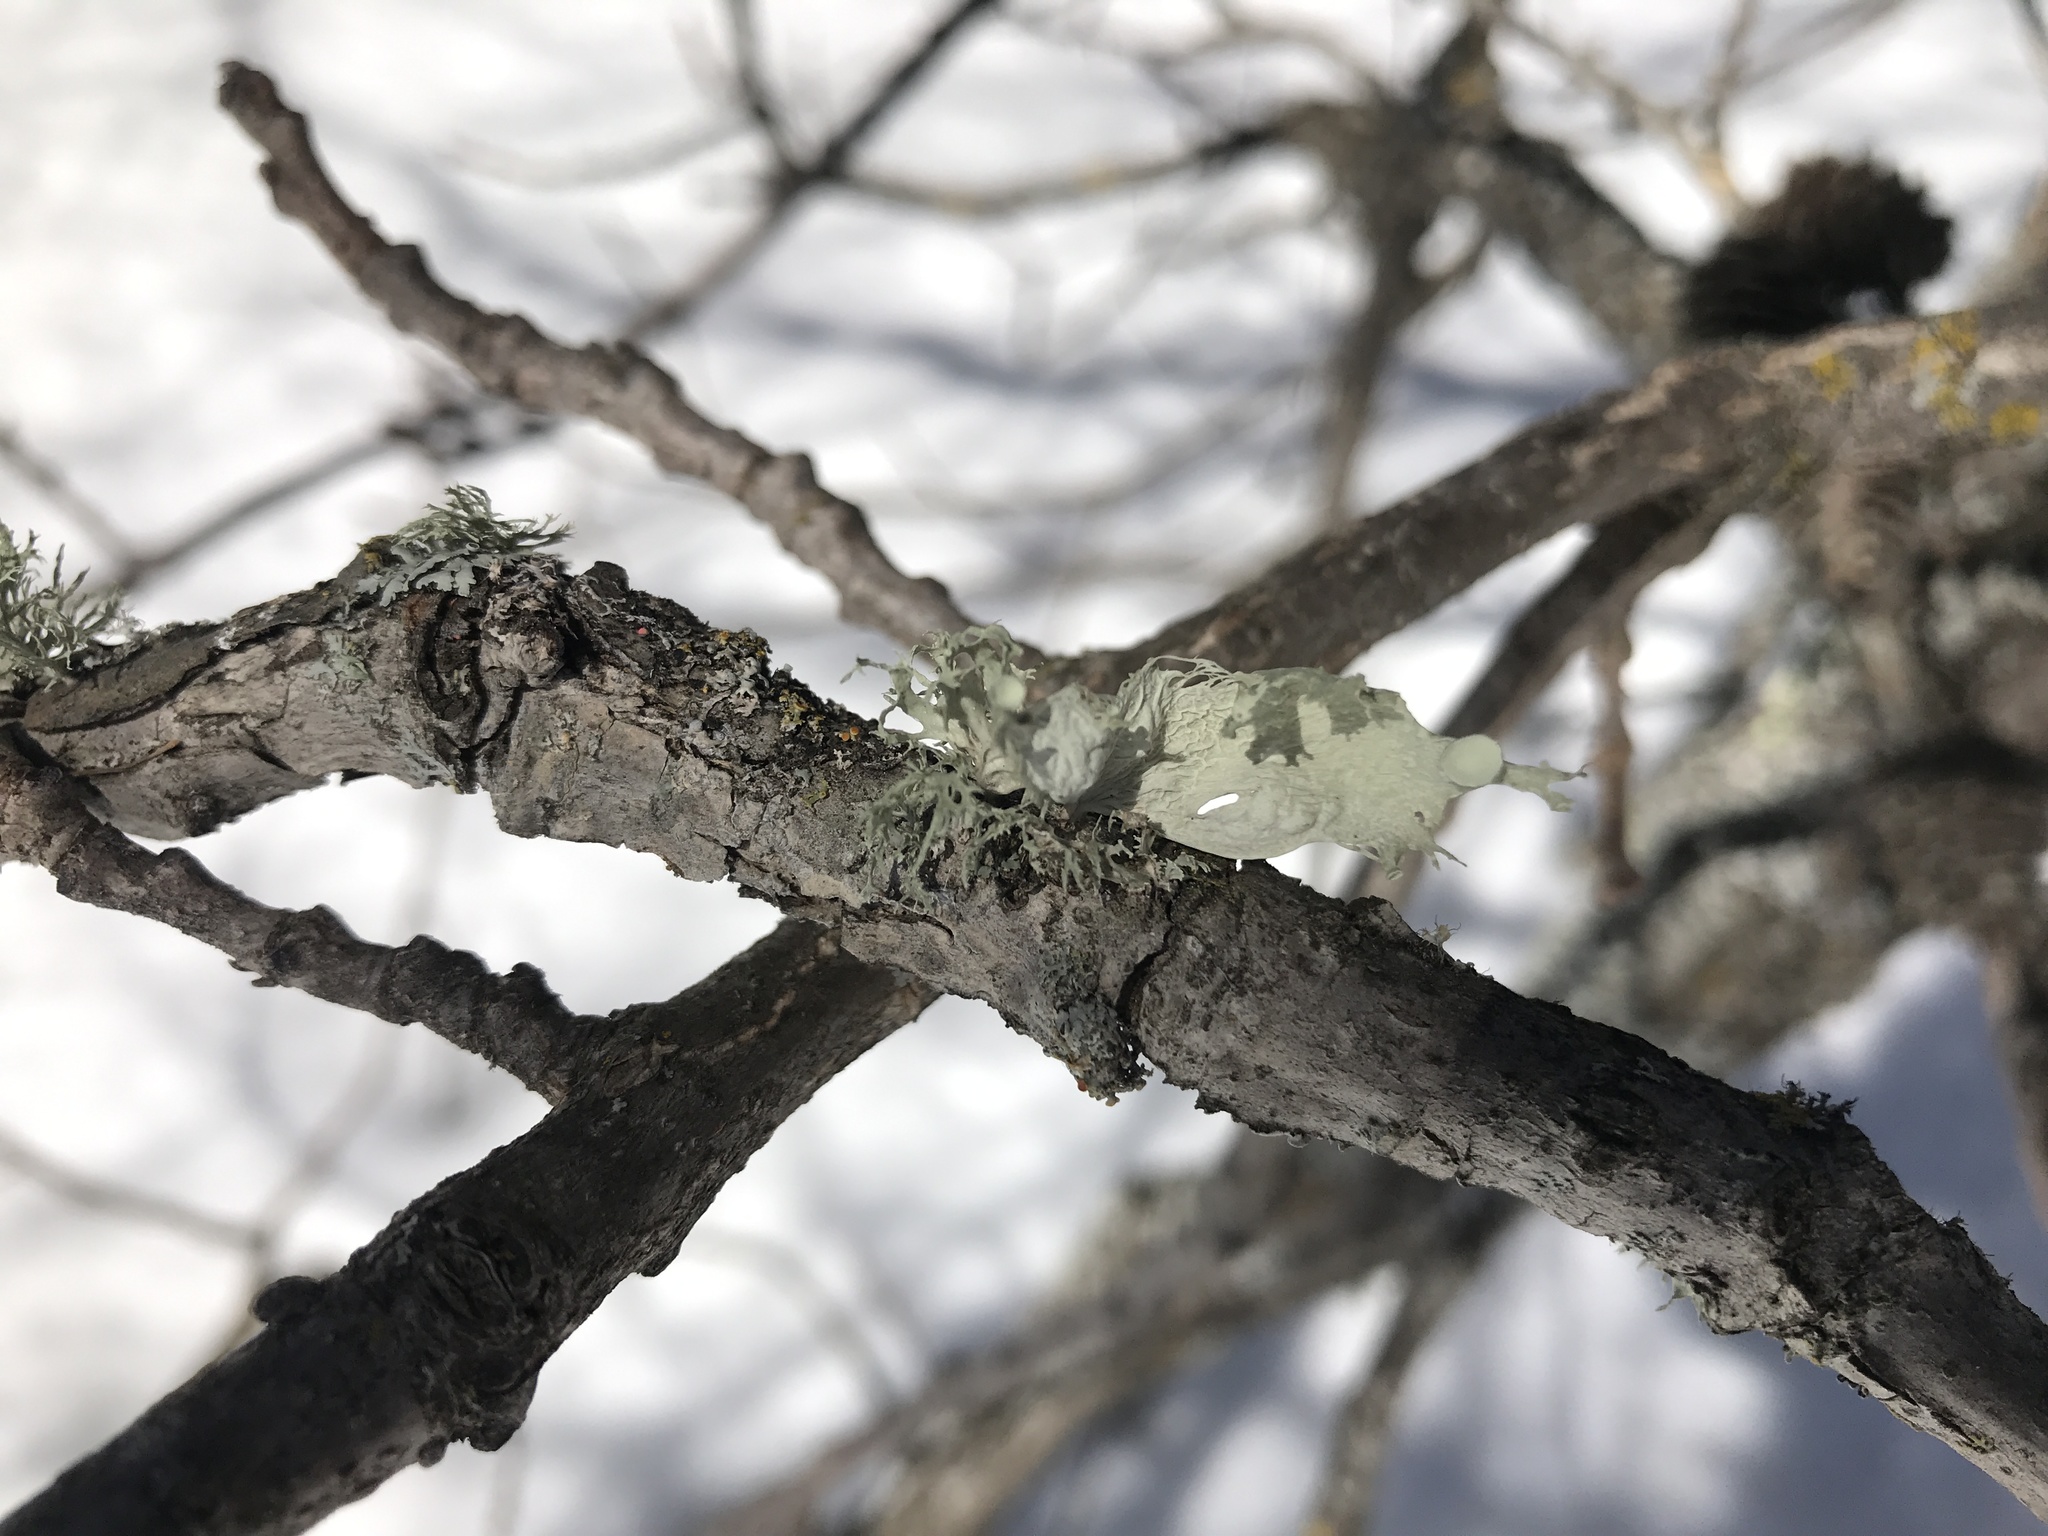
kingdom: Fungi
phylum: Ascomycota
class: Lecanoromycetes
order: Lecanorales
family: Ramalinaceae
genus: Ramalina
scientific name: Ramalina sinensis
